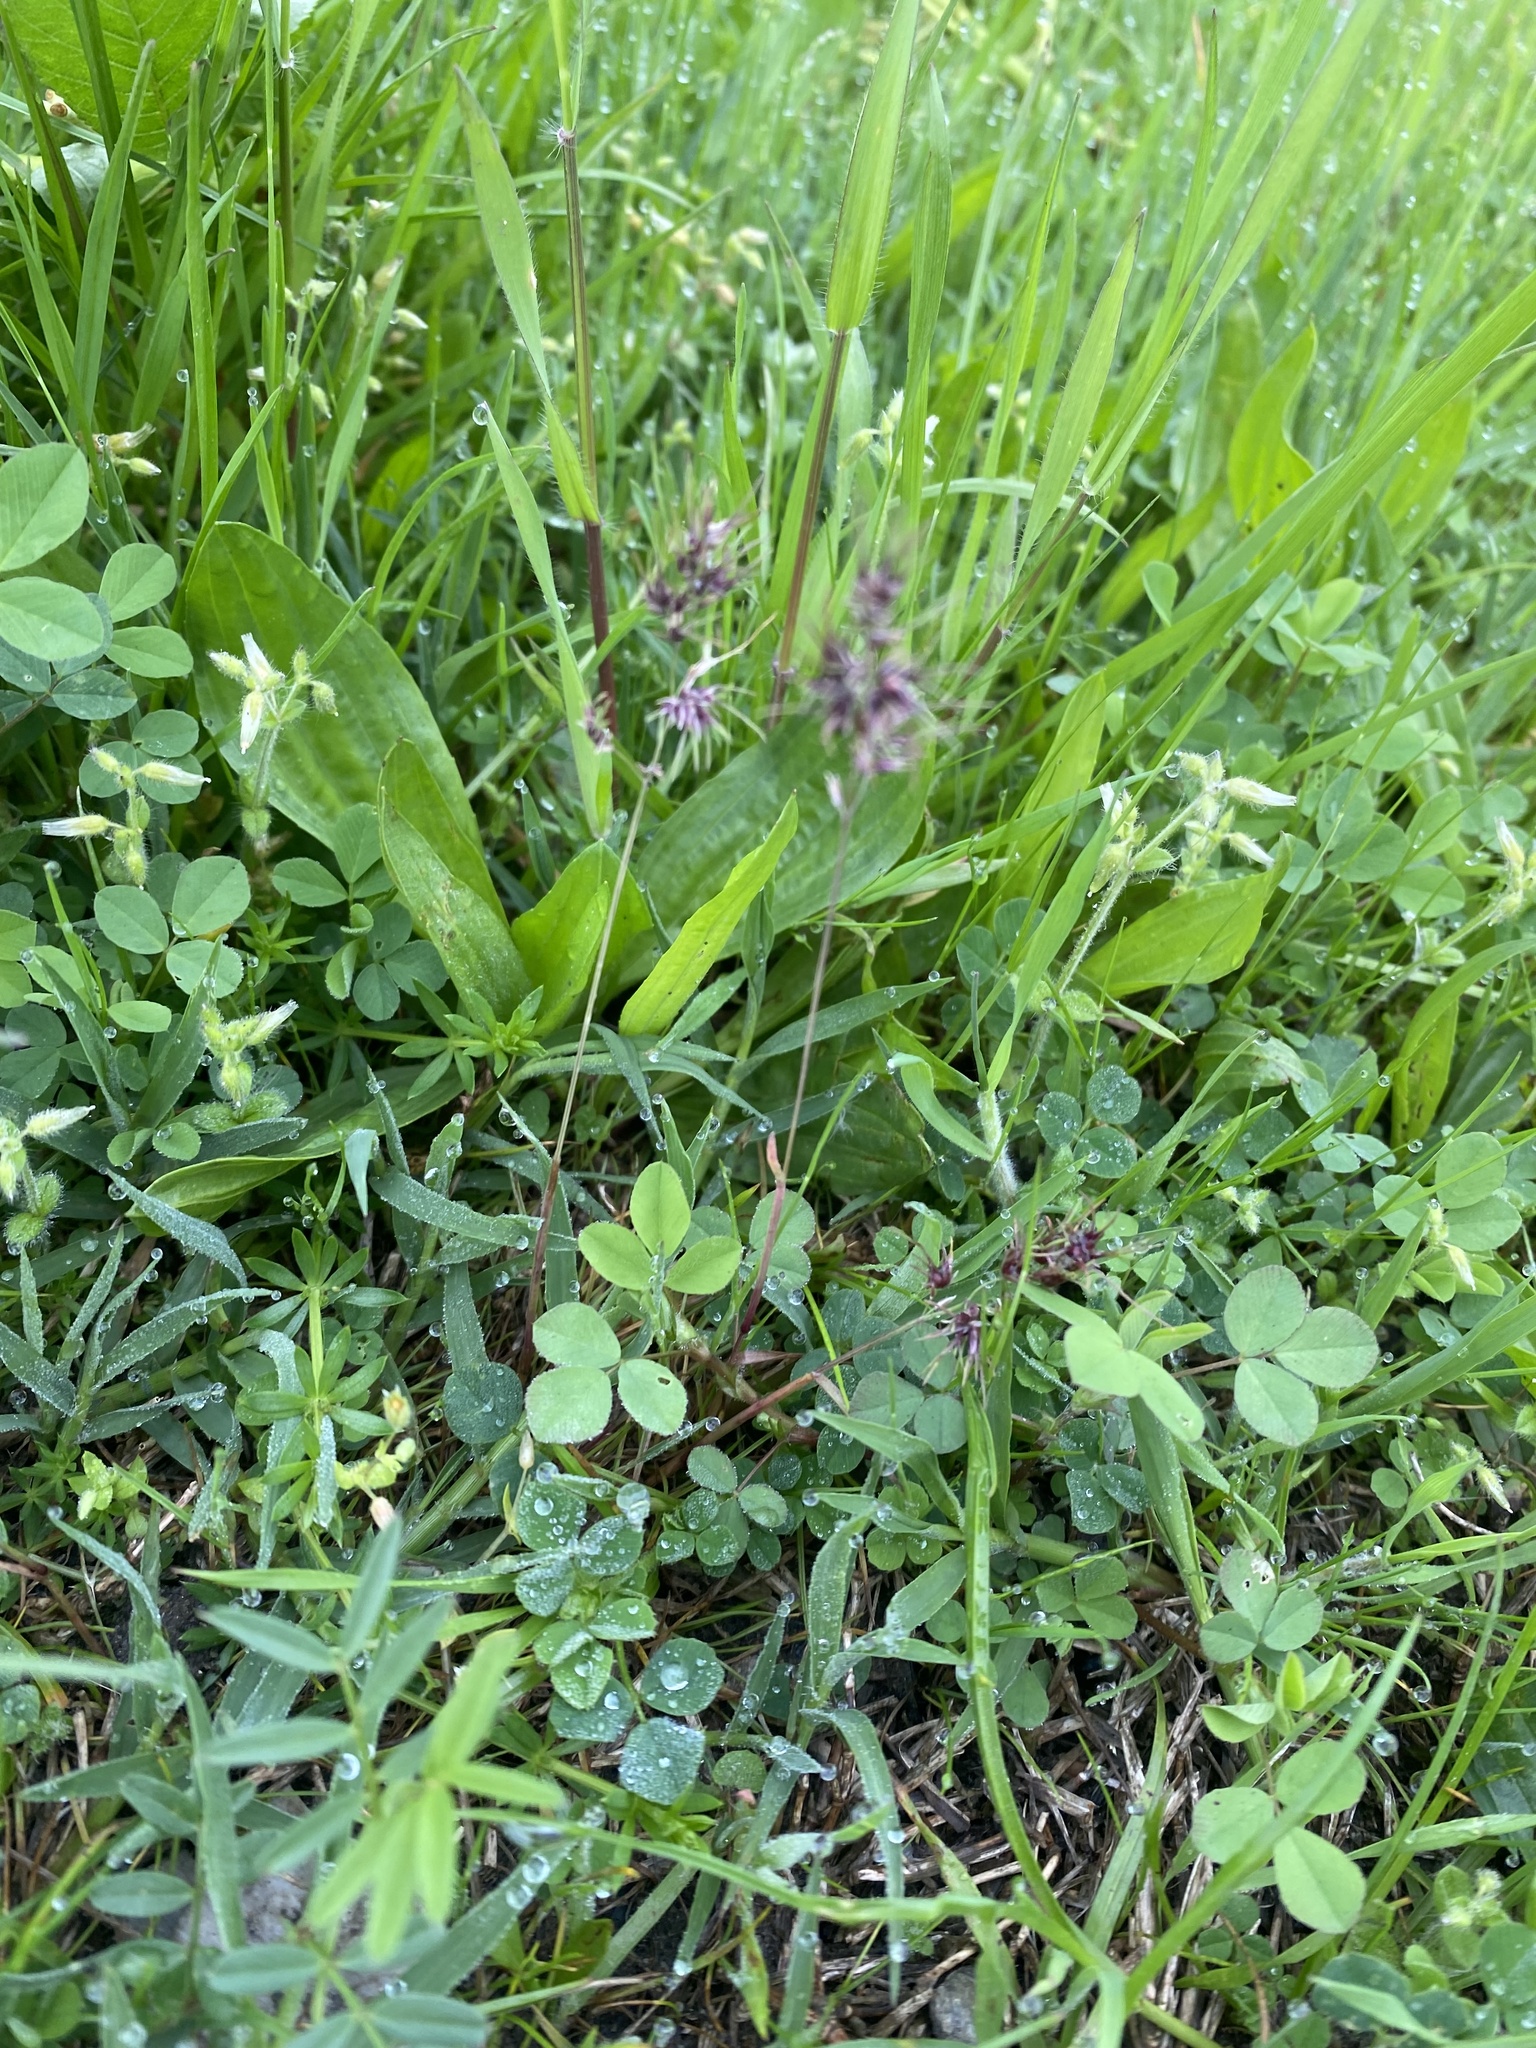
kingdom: Plantae
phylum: Tracheophyta
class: Liliopsida
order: Poales
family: Poaceae
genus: Poa
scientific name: Poa bulbosa
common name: Bulbous bluegrass
